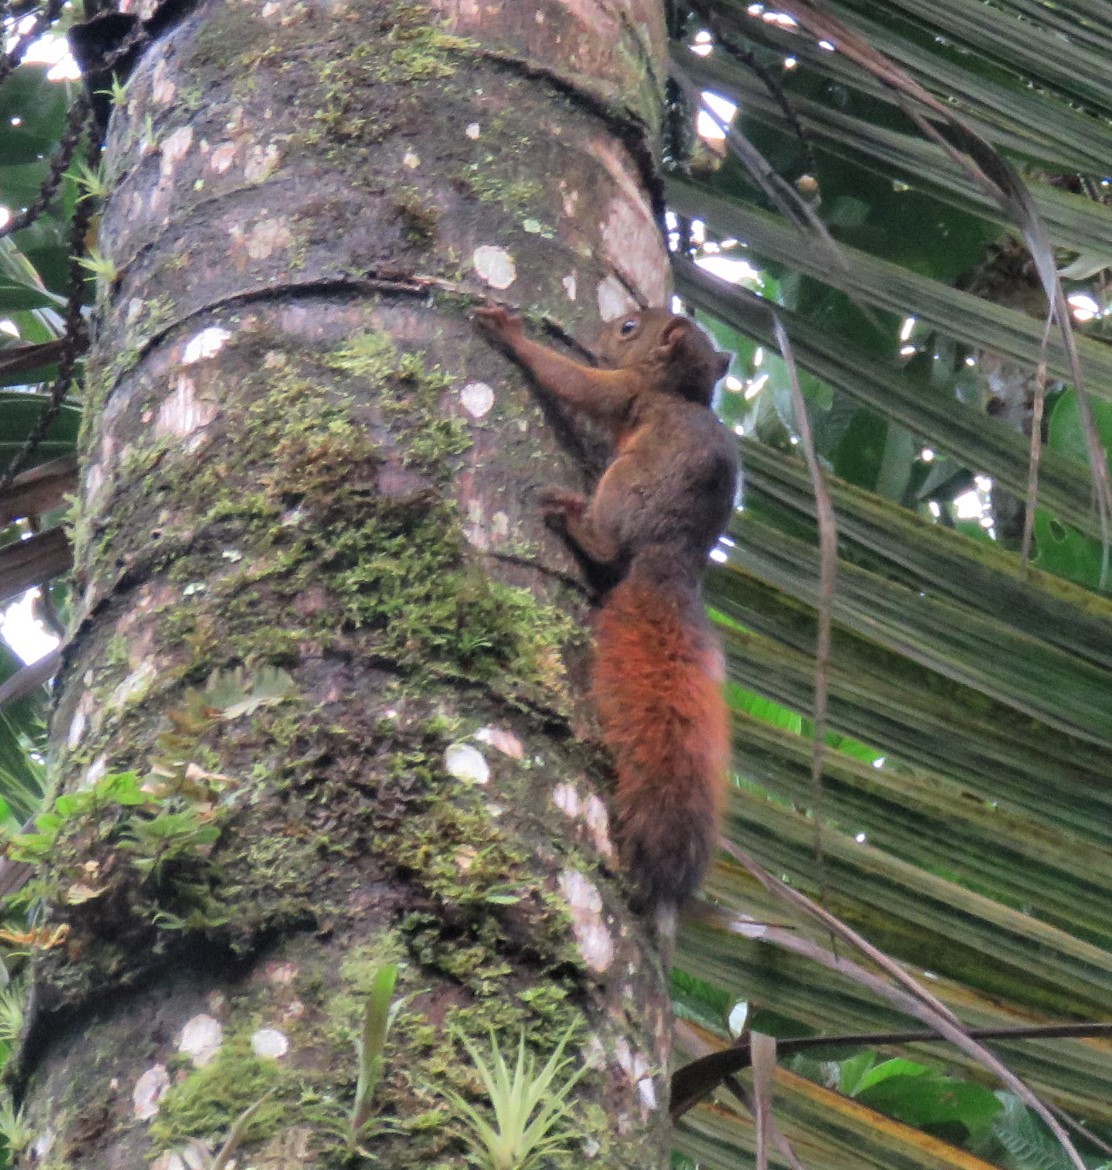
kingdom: Animalia
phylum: Chordata
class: Mammalia
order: Rodentia
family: Sciuridae
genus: Sciurus
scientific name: Sciurus granatensis
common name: Red-tailed squirrel
